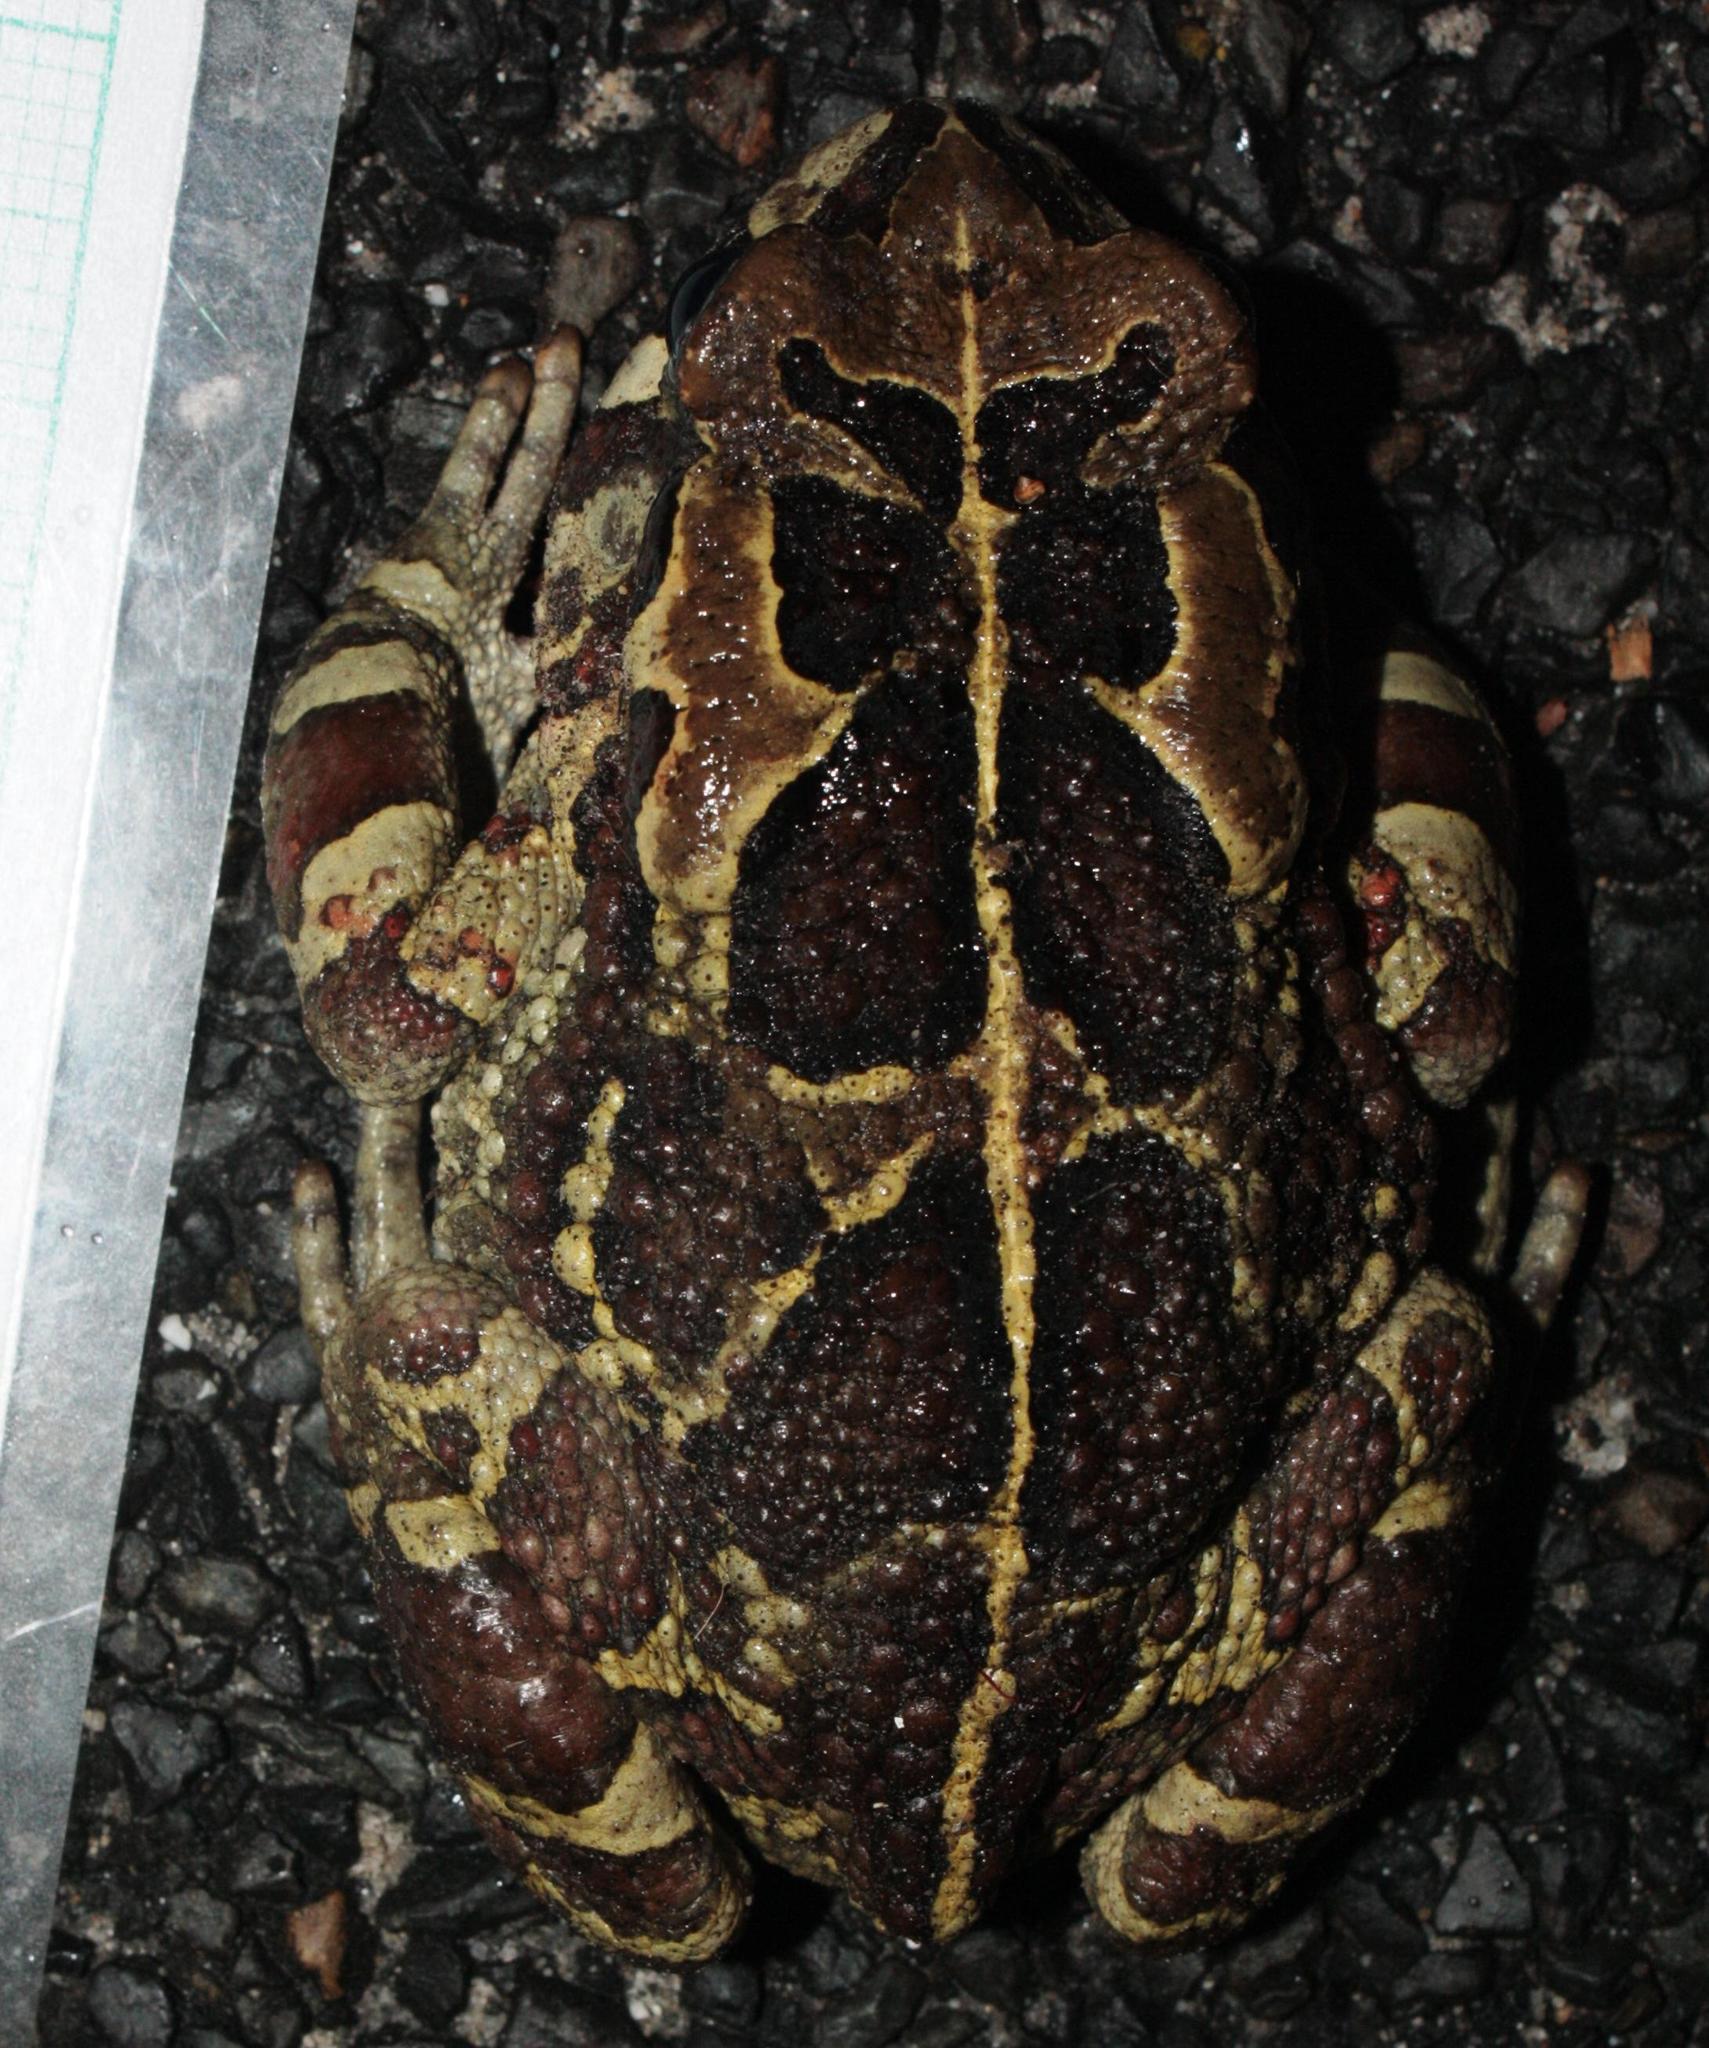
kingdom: Animalia
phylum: Chordata
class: Amphibia
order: Anura
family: Bufonidae
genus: Sclerophrys
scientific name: Sclerophrys pantherina
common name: Panther toad
